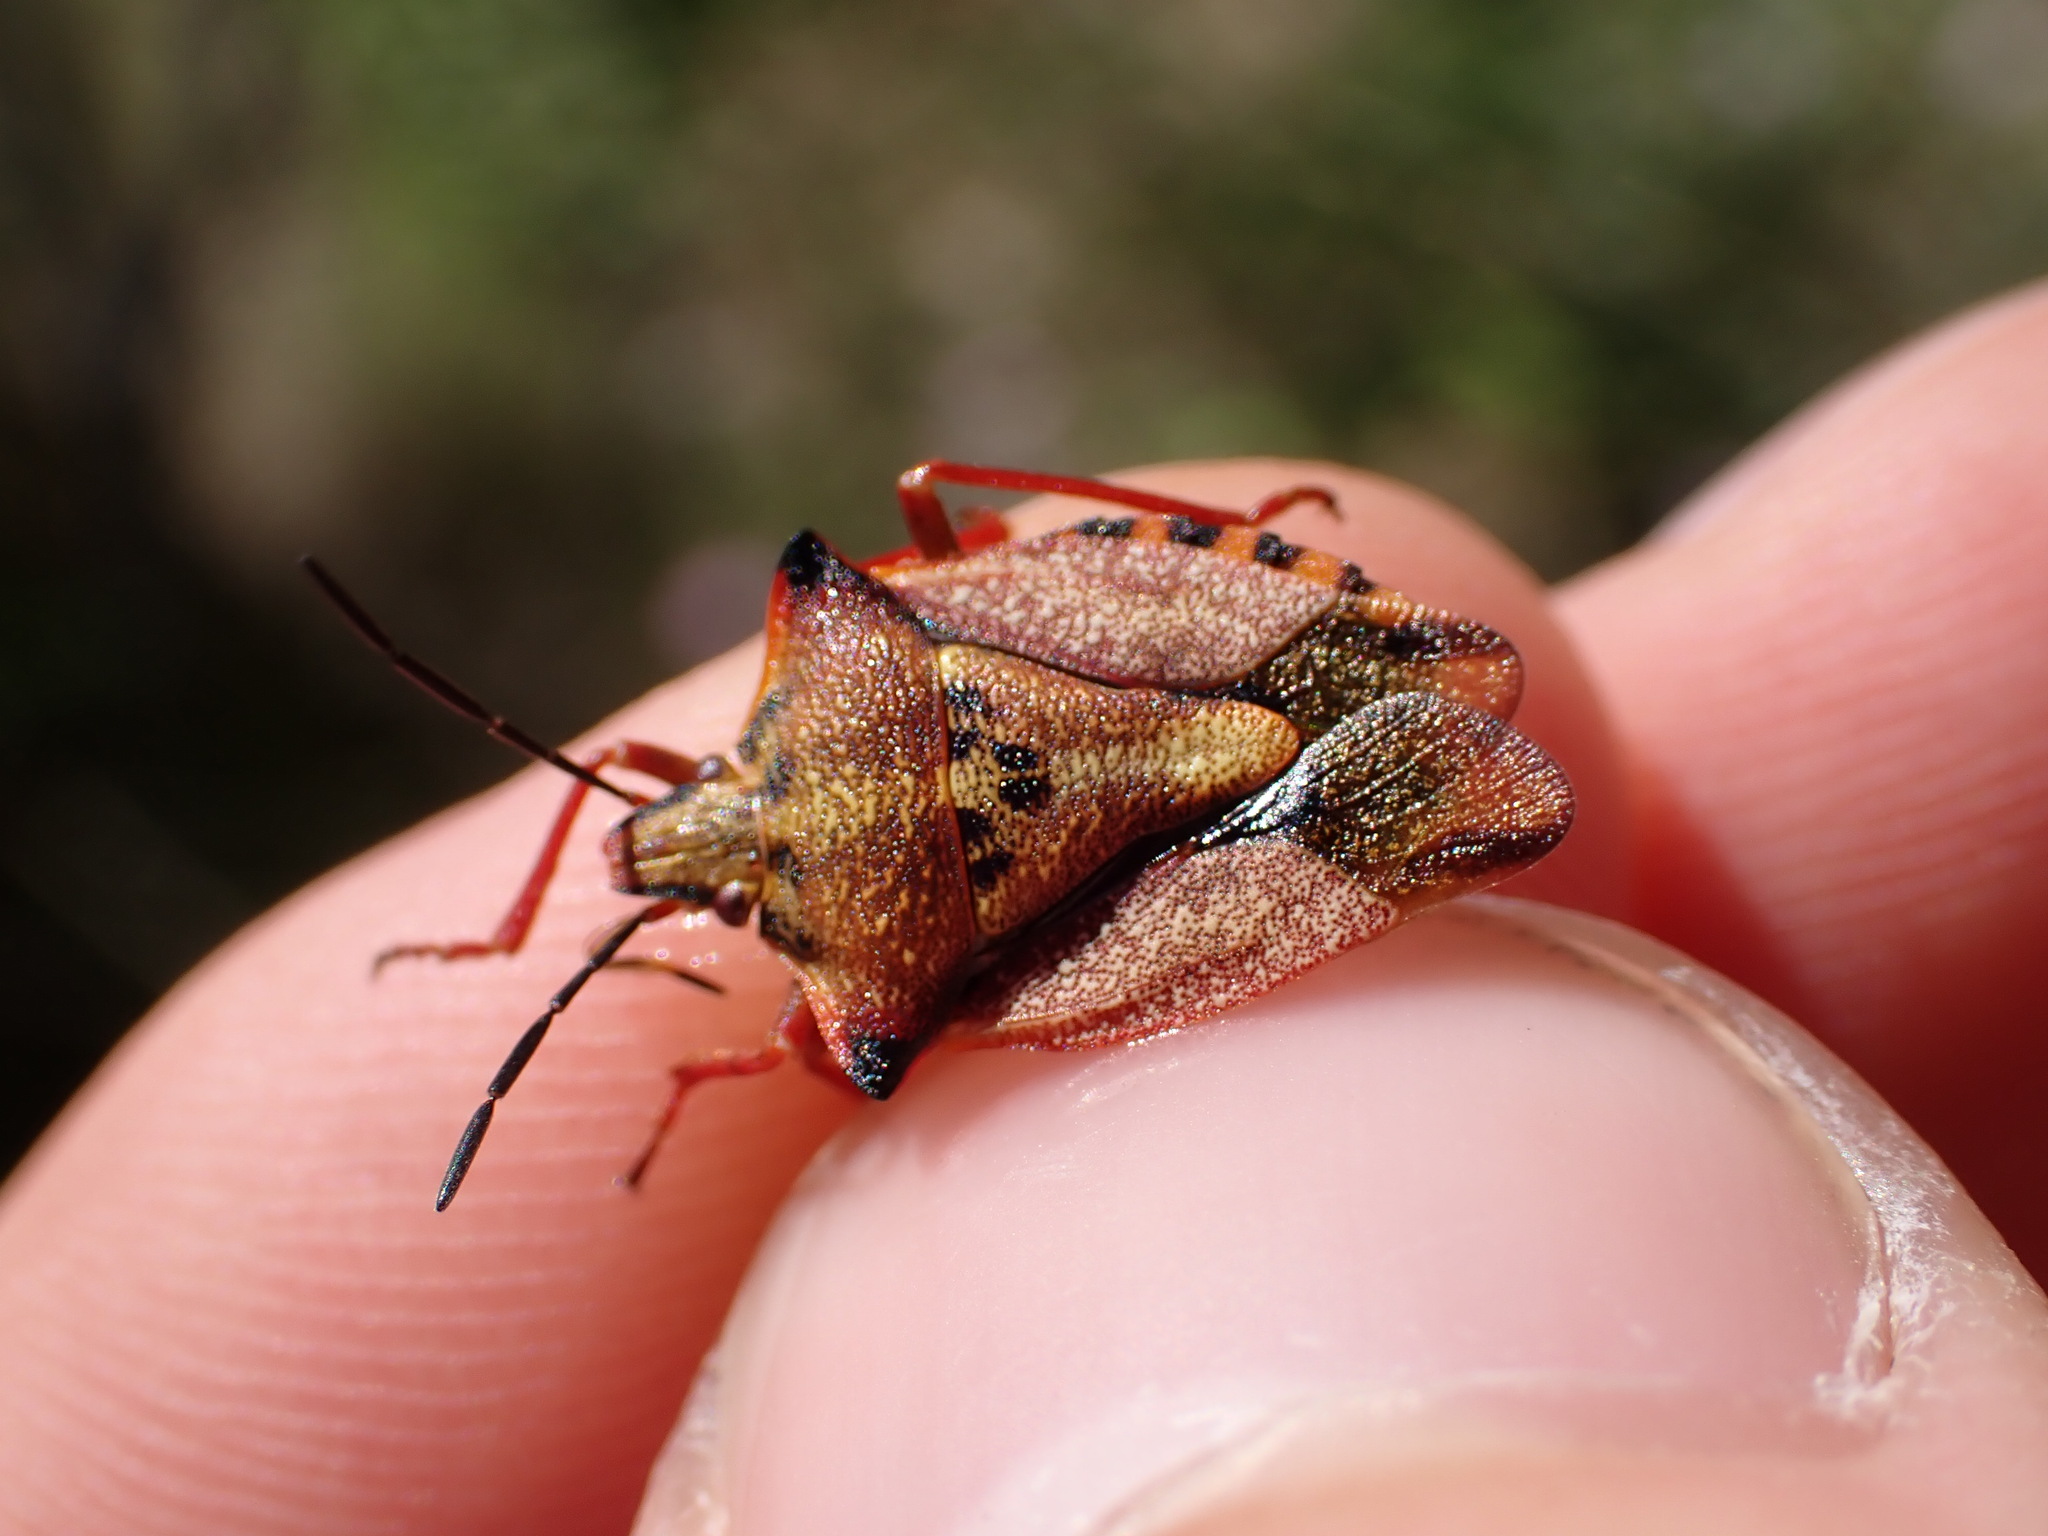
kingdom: Animalia
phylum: Arthropoda
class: Insecta
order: Hemiptera
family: Pentatomidae
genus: Carpocoris
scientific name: Carpocoris mediterraneus
